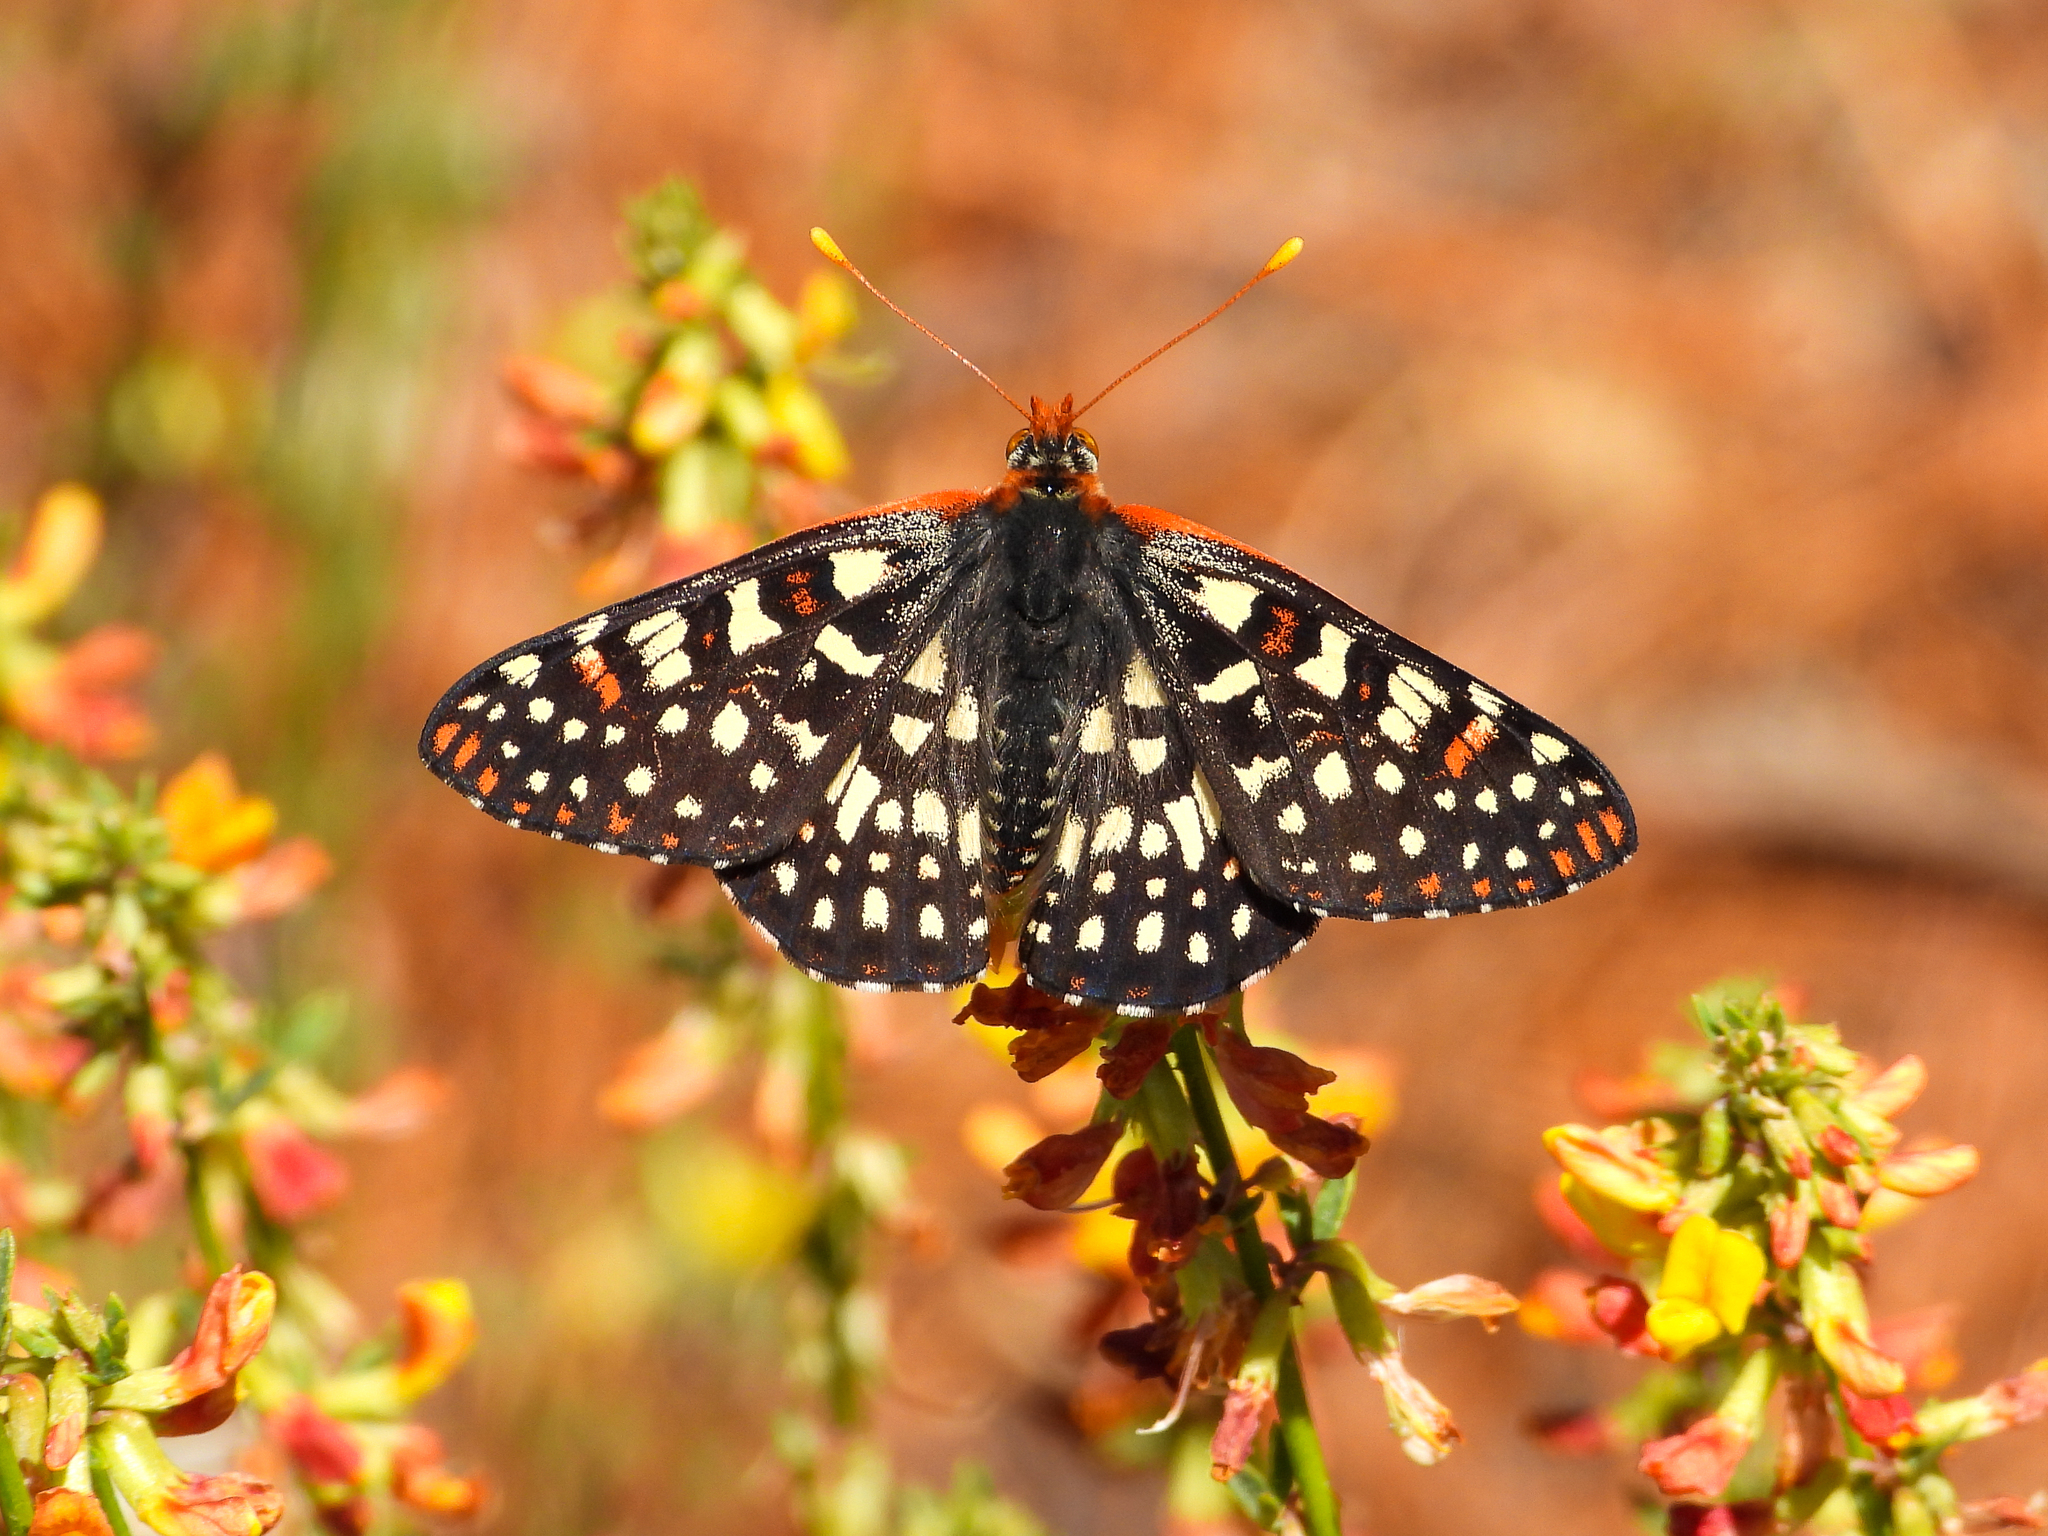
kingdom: Animalia
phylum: Arthropoda
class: Insecta
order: Lepidoptera
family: Nymphalidae
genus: Occidryas
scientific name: Occidryas chalcedona
